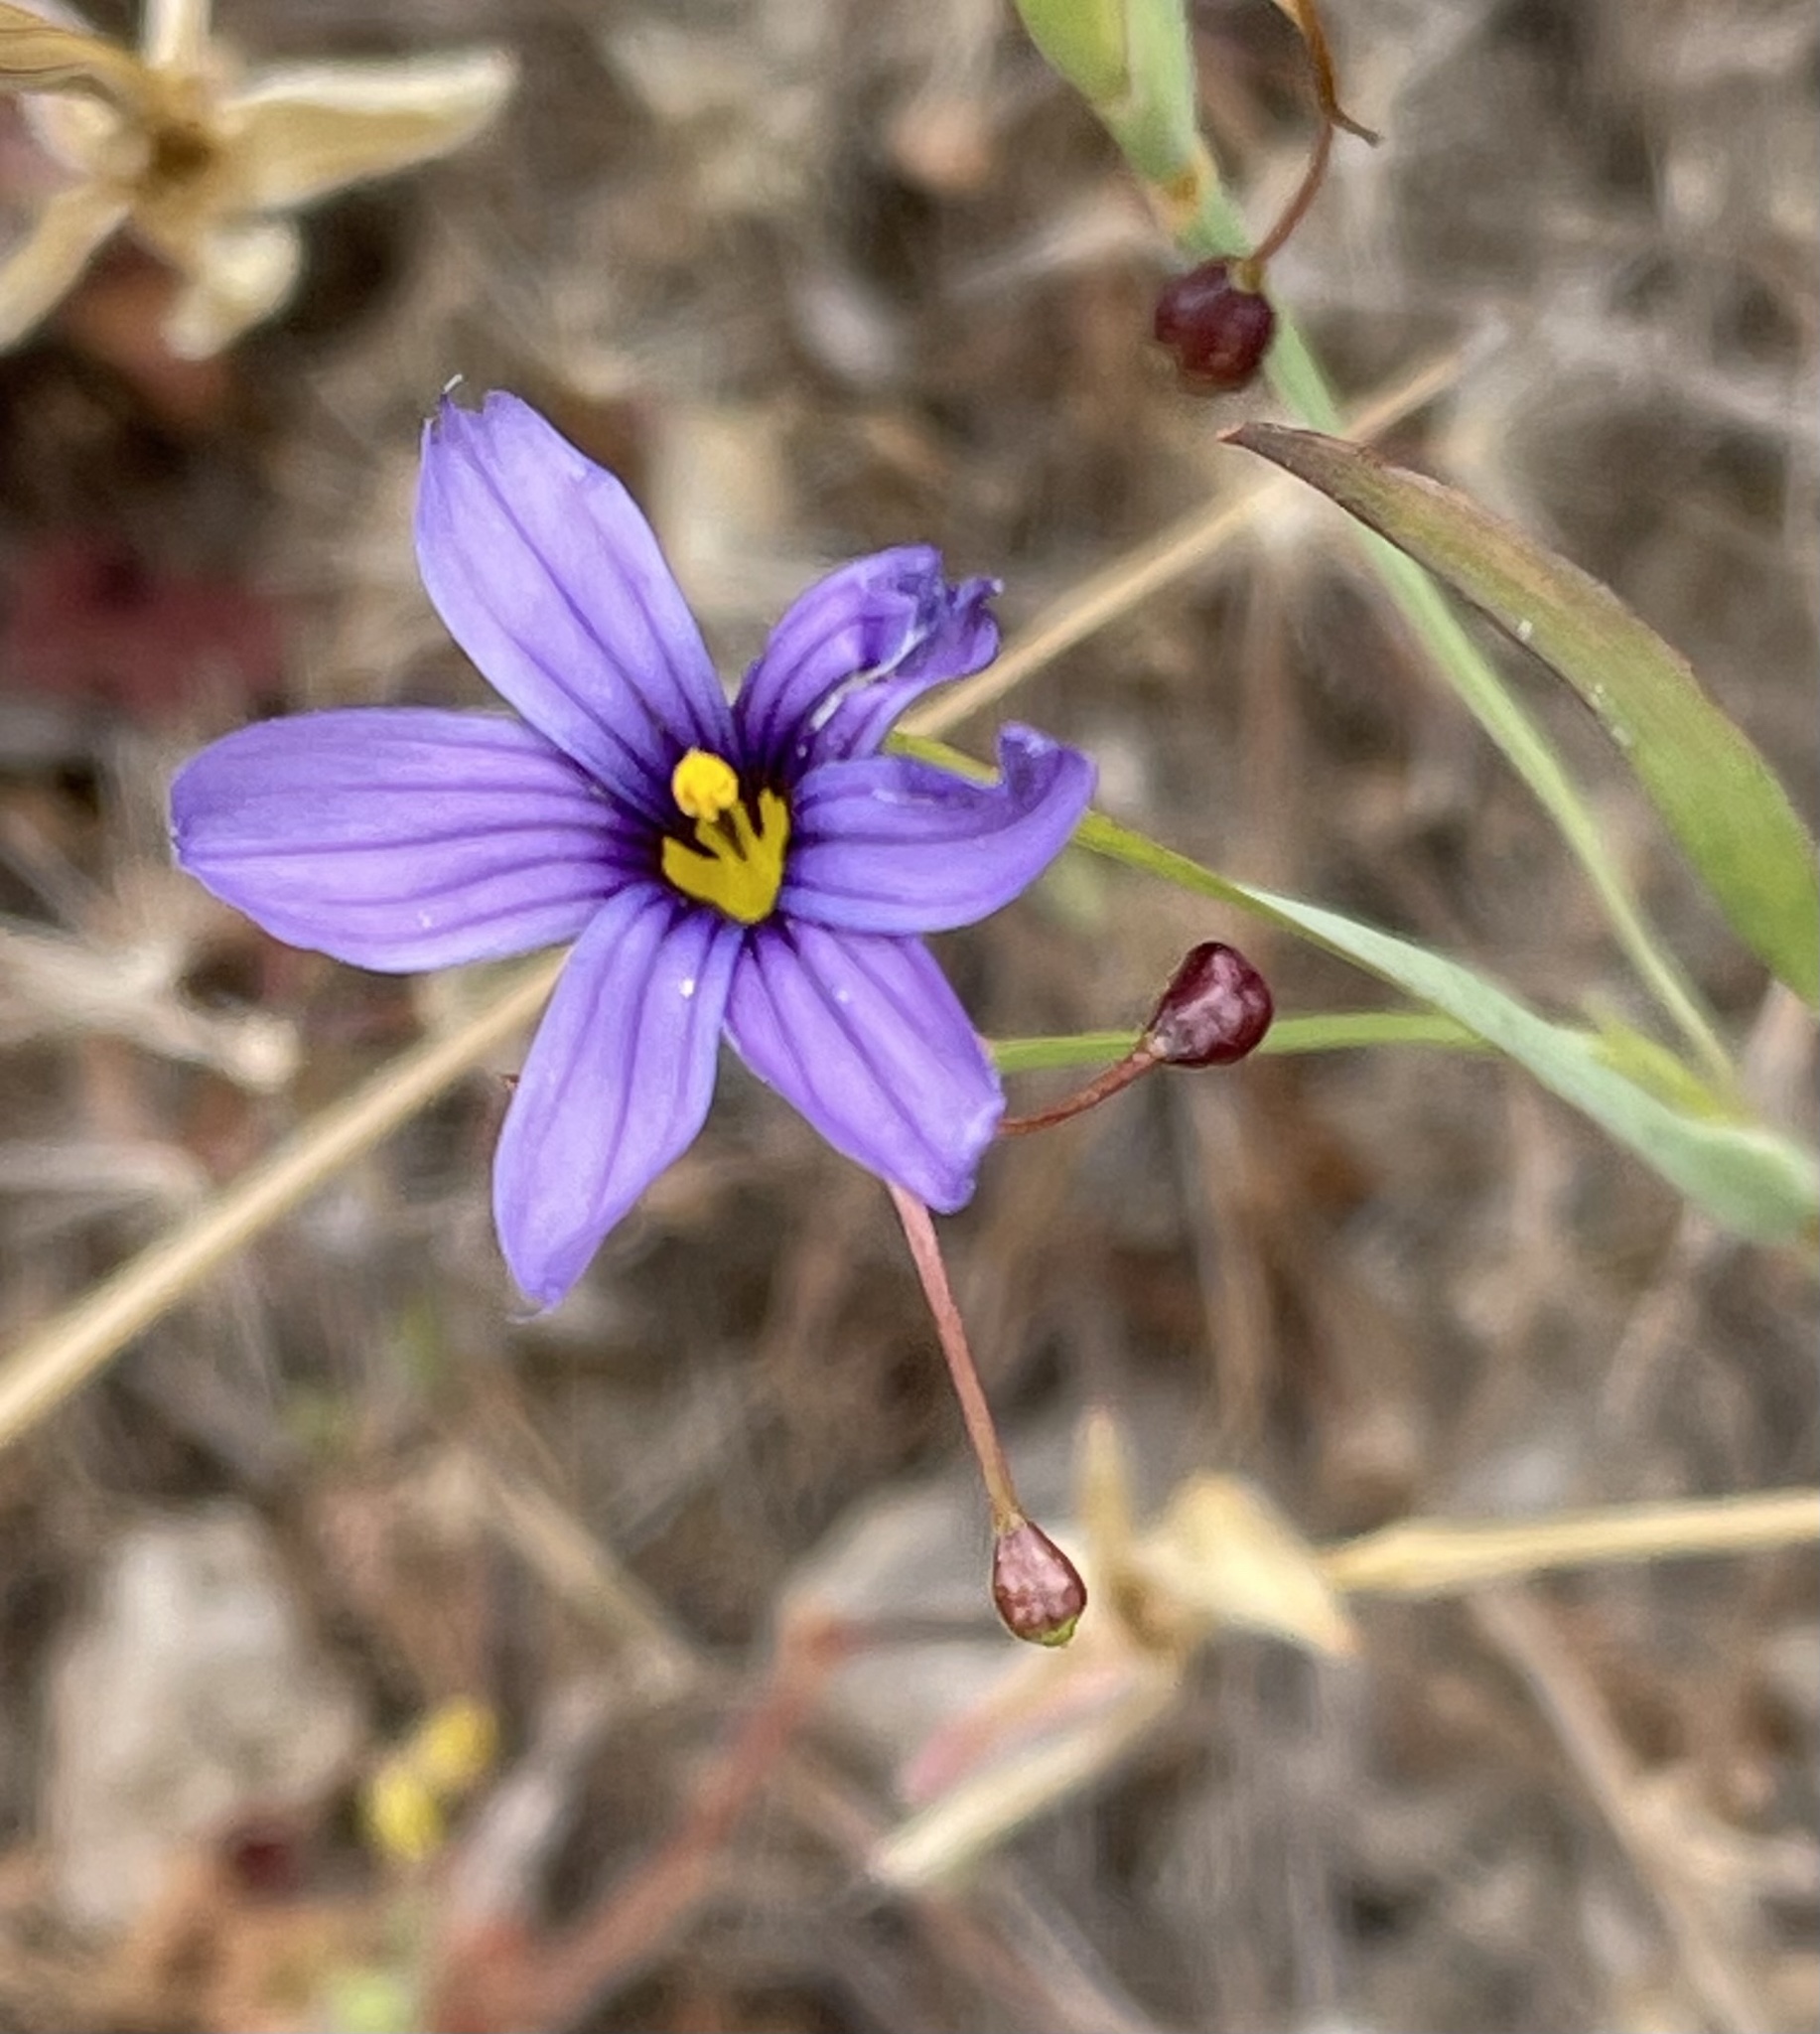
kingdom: Plantae
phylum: Tracheophyta
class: Liliopsida
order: Asparagales
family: Iridaceae
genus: Sisyrinchium
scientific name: Sisyrinchium bellum
